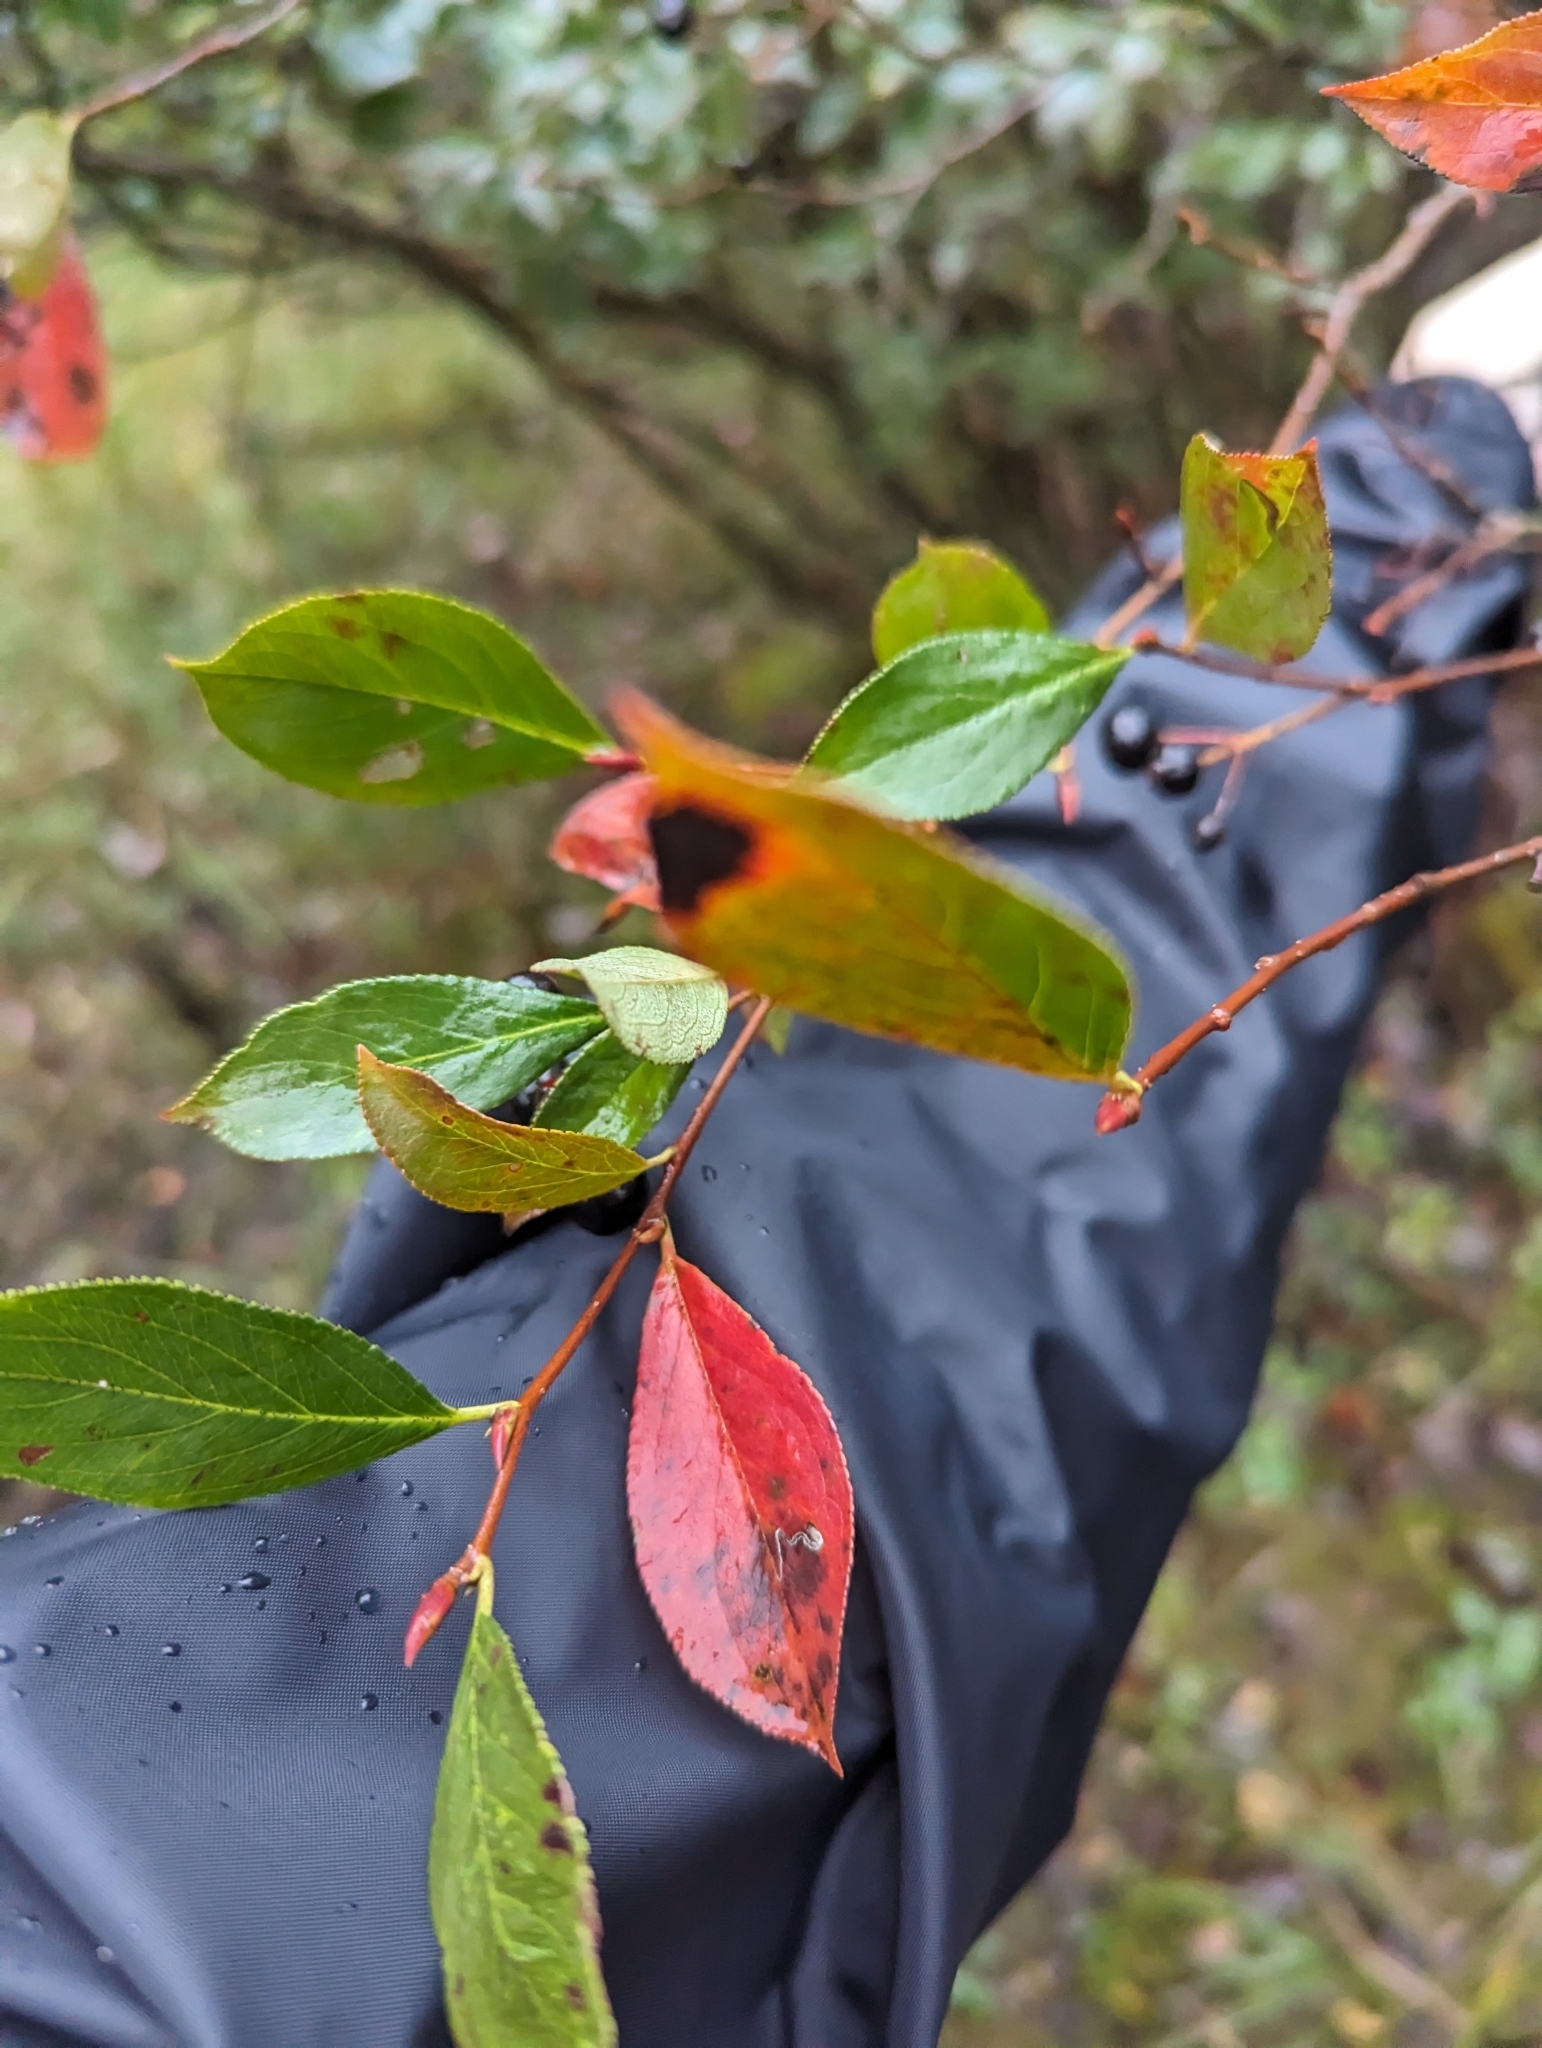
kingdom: Plantae
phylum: Tracheophyta
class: Magnoliopsida
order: Rosales
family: Rosaceae
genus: Aronia
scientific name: Aronia melanocarpa
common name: Black chokeberry
